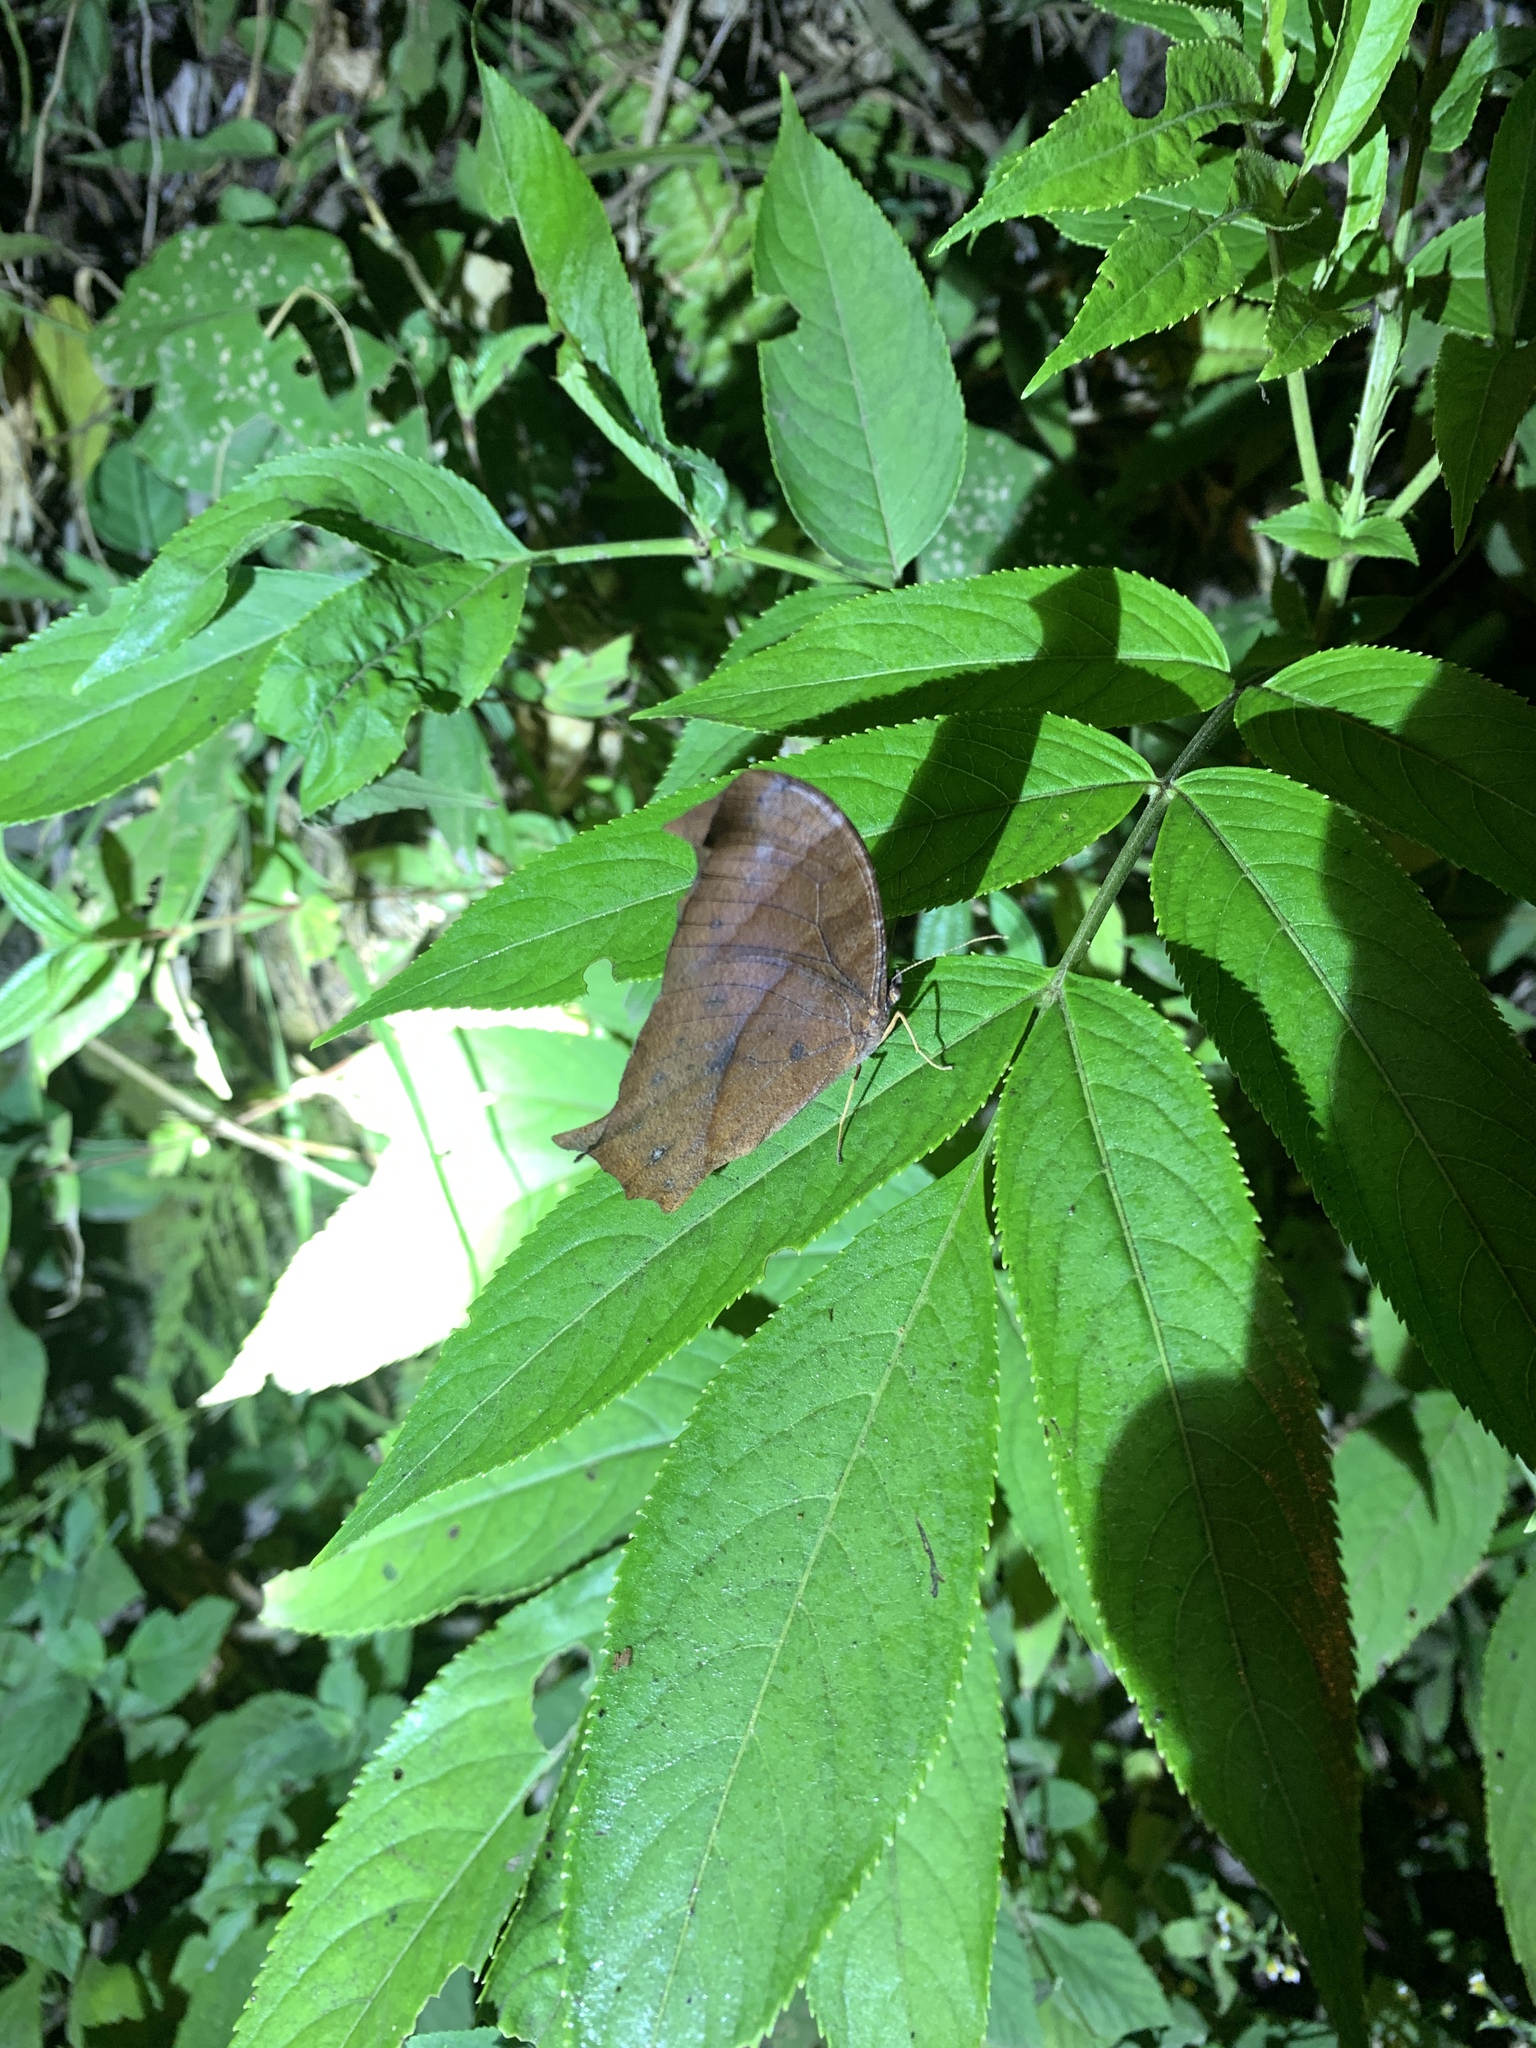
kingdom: Animalia
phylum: Arthropoda
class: Insecta
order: Lepidoptera
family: Nymphalidae
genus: Melanitis
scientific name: Melanitis phedima
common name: Dark evening brown
